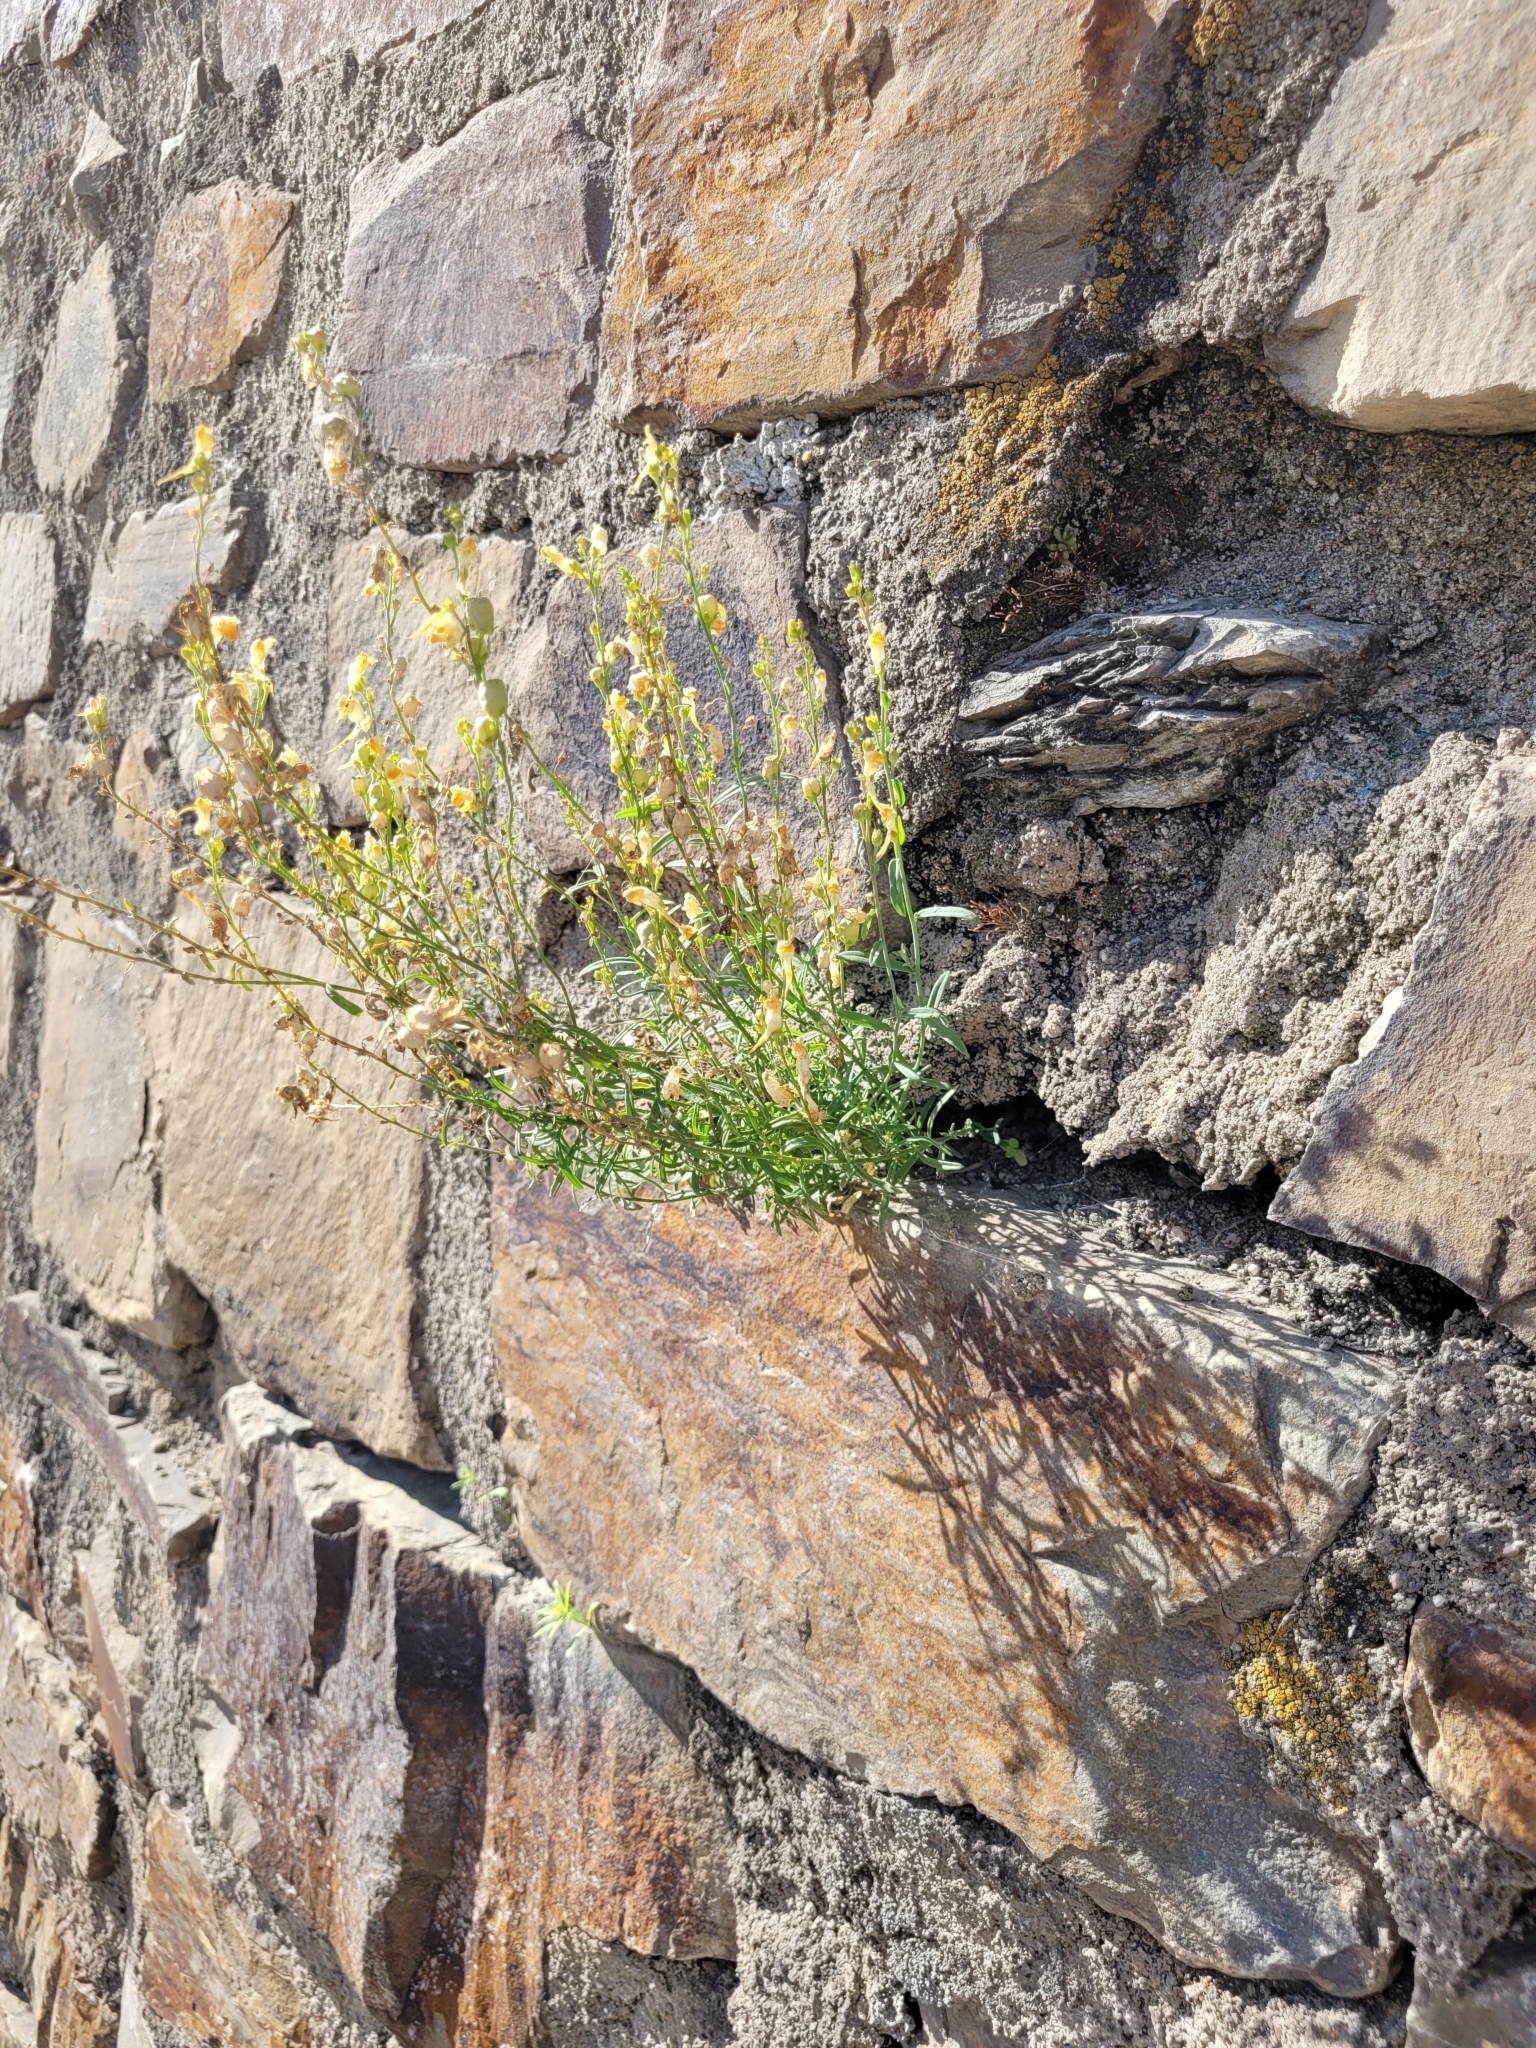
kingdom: Plantae
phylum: Tracheophyta
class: Magnoliopsida
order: Lamiales
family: Plantaginaceae
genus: Linaria
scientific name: Linaria vulgaris
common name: Butter and eggs
